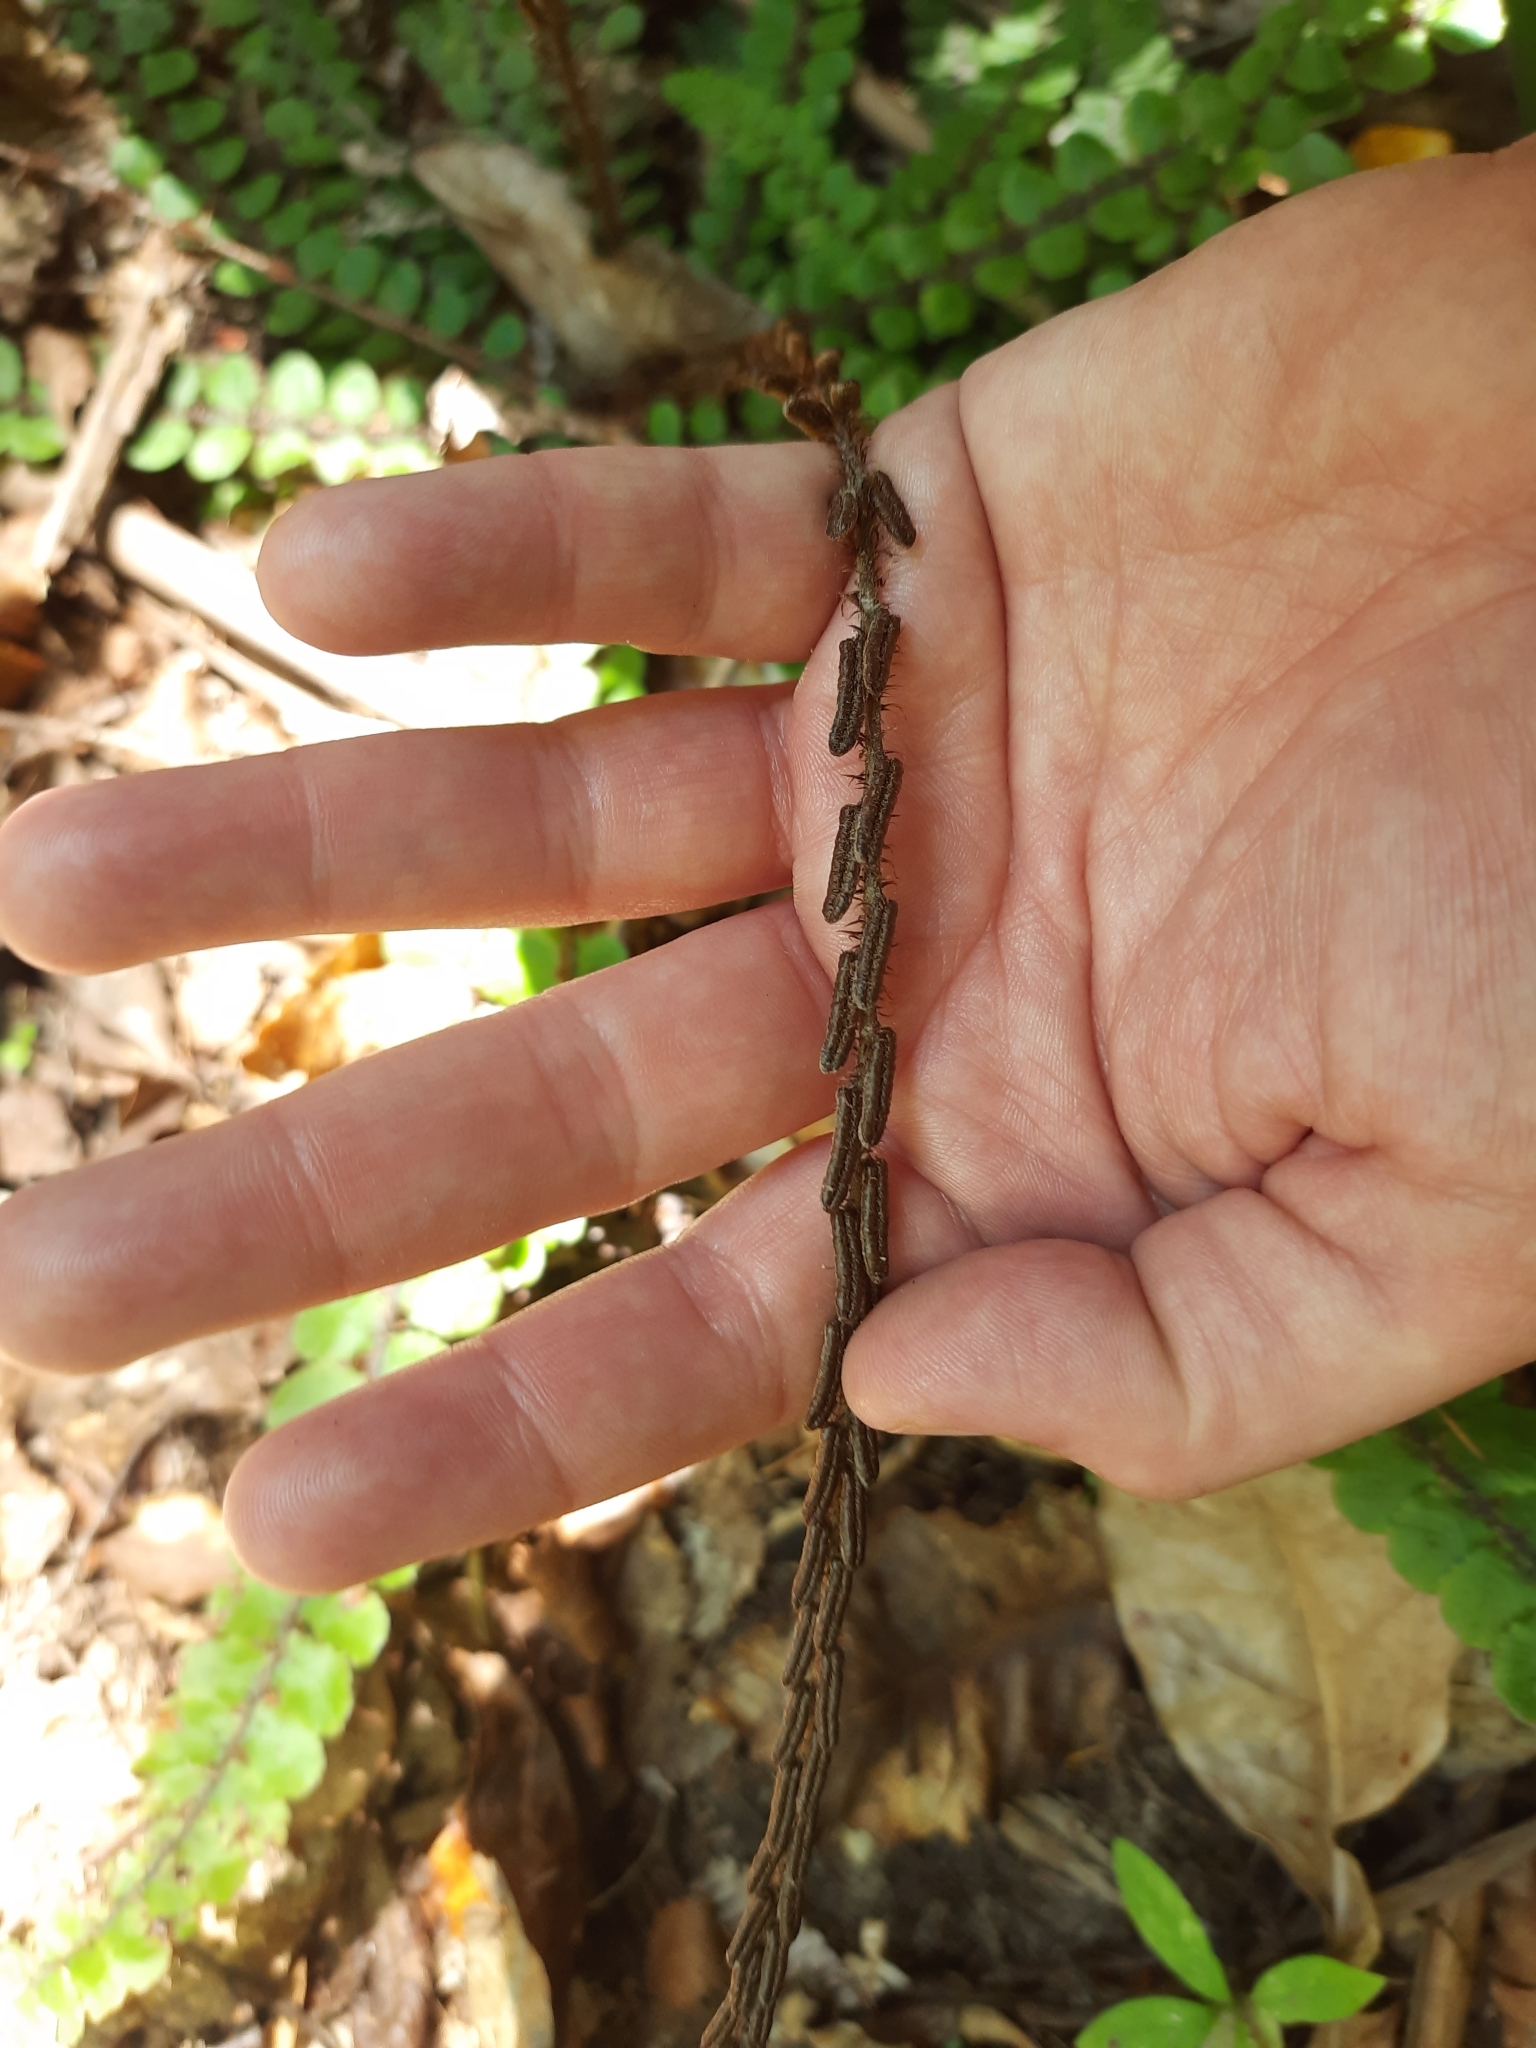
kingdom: Plantae
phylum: Tracheophyta
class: Polypodiopsida
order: Polypodiales
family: Blechnaceae
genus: Cranfillia
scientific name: Cranfillia fluviatilis
